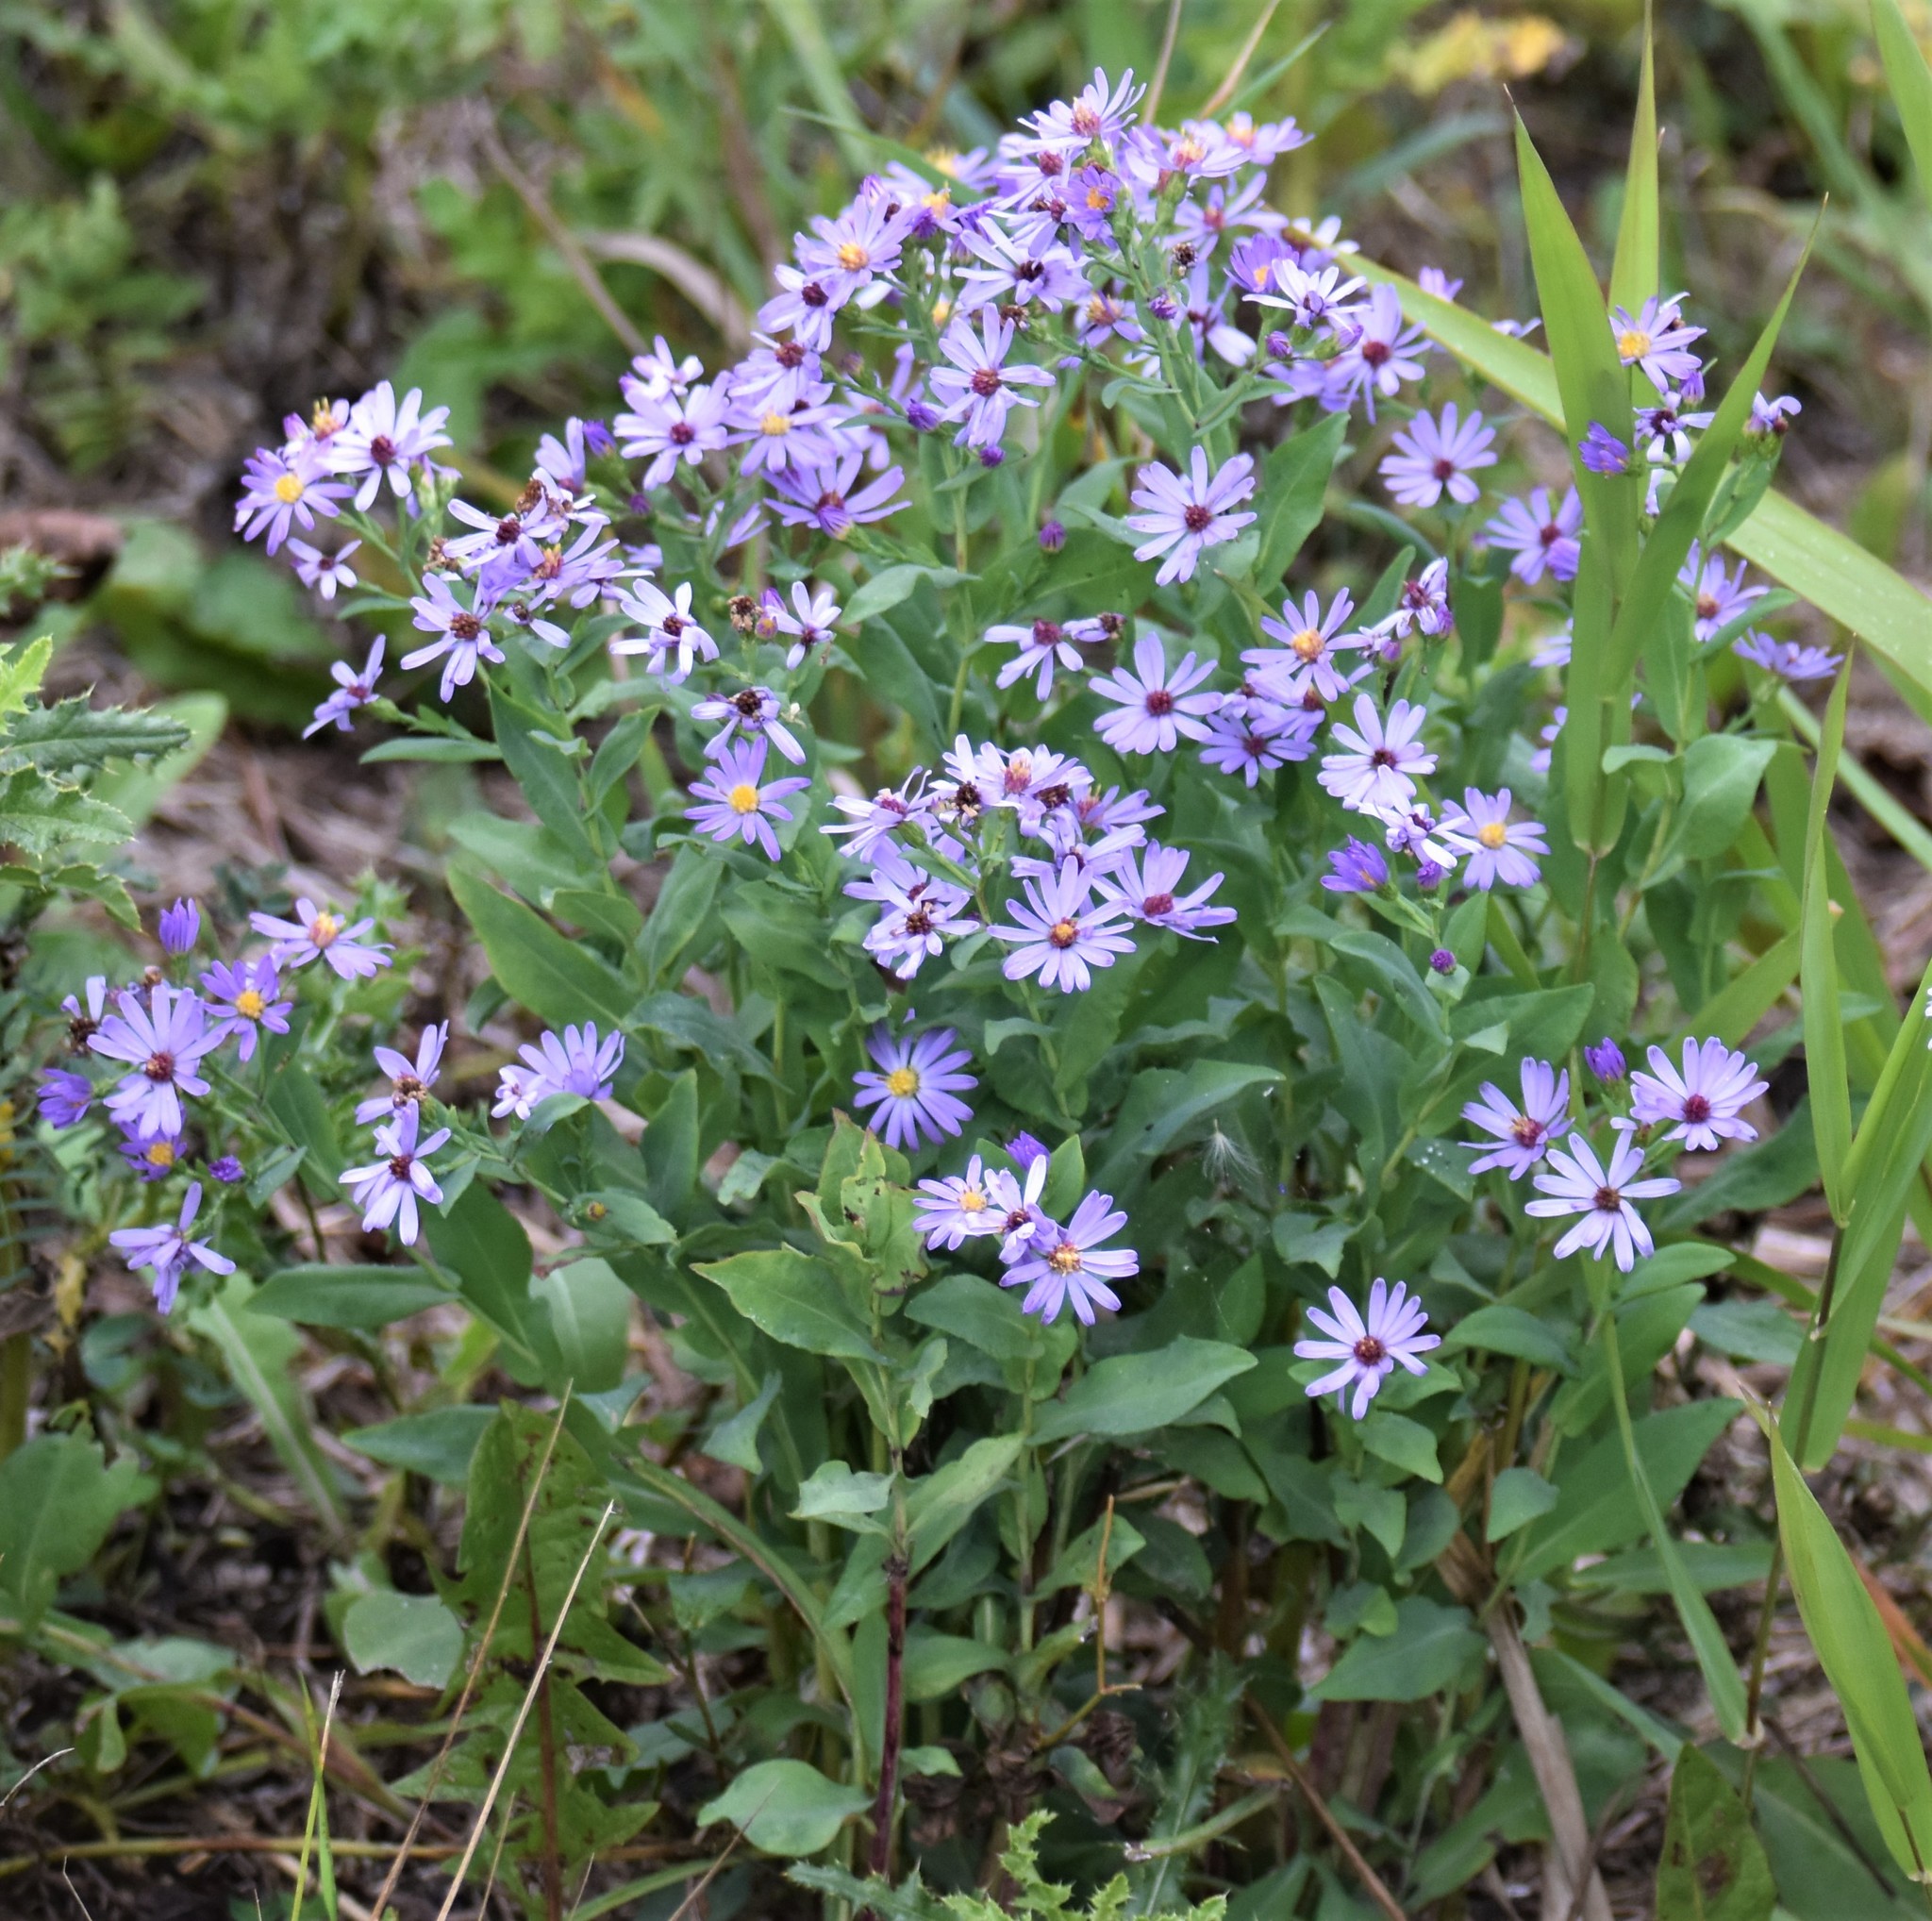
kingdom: Plantae
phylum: Tracheophyta
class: Magnoliopsida
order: Asterales
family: Asteraceae
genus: Symphyotrichum
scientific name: Symphyotrichum laeve
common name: Glaucous aster
